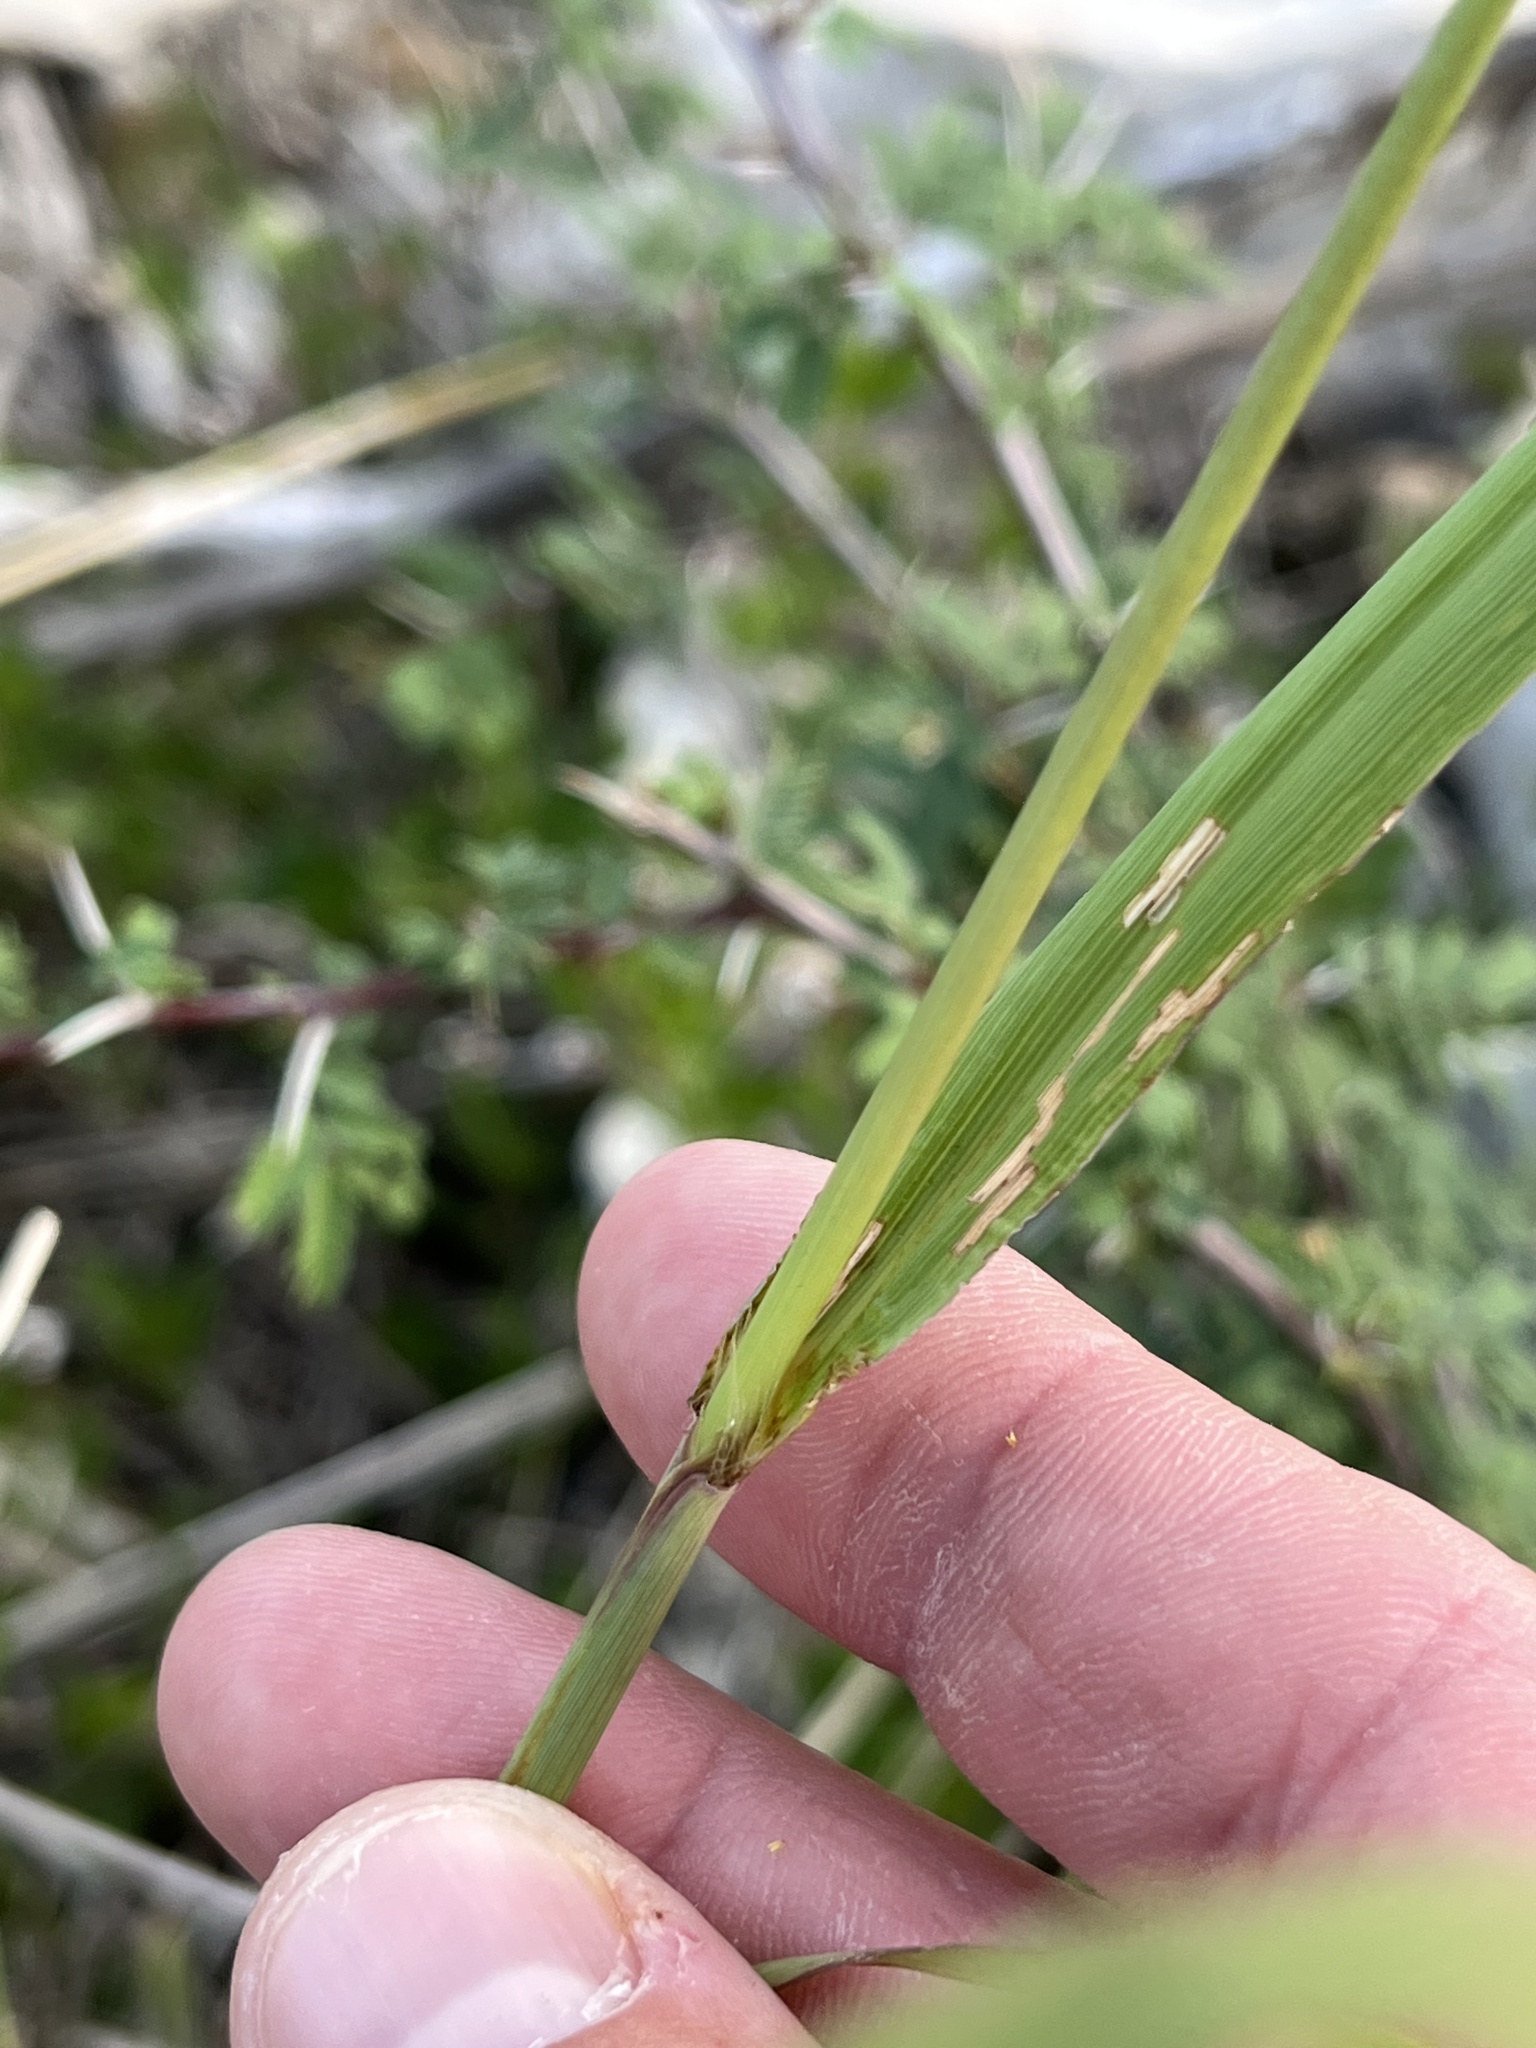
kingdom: Plantae
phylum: Tracheophyta
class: Liliopsida
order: Poales
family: Poaceae
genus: Paspalum
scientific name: Paspalum urvillei
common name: Vasey's grass
